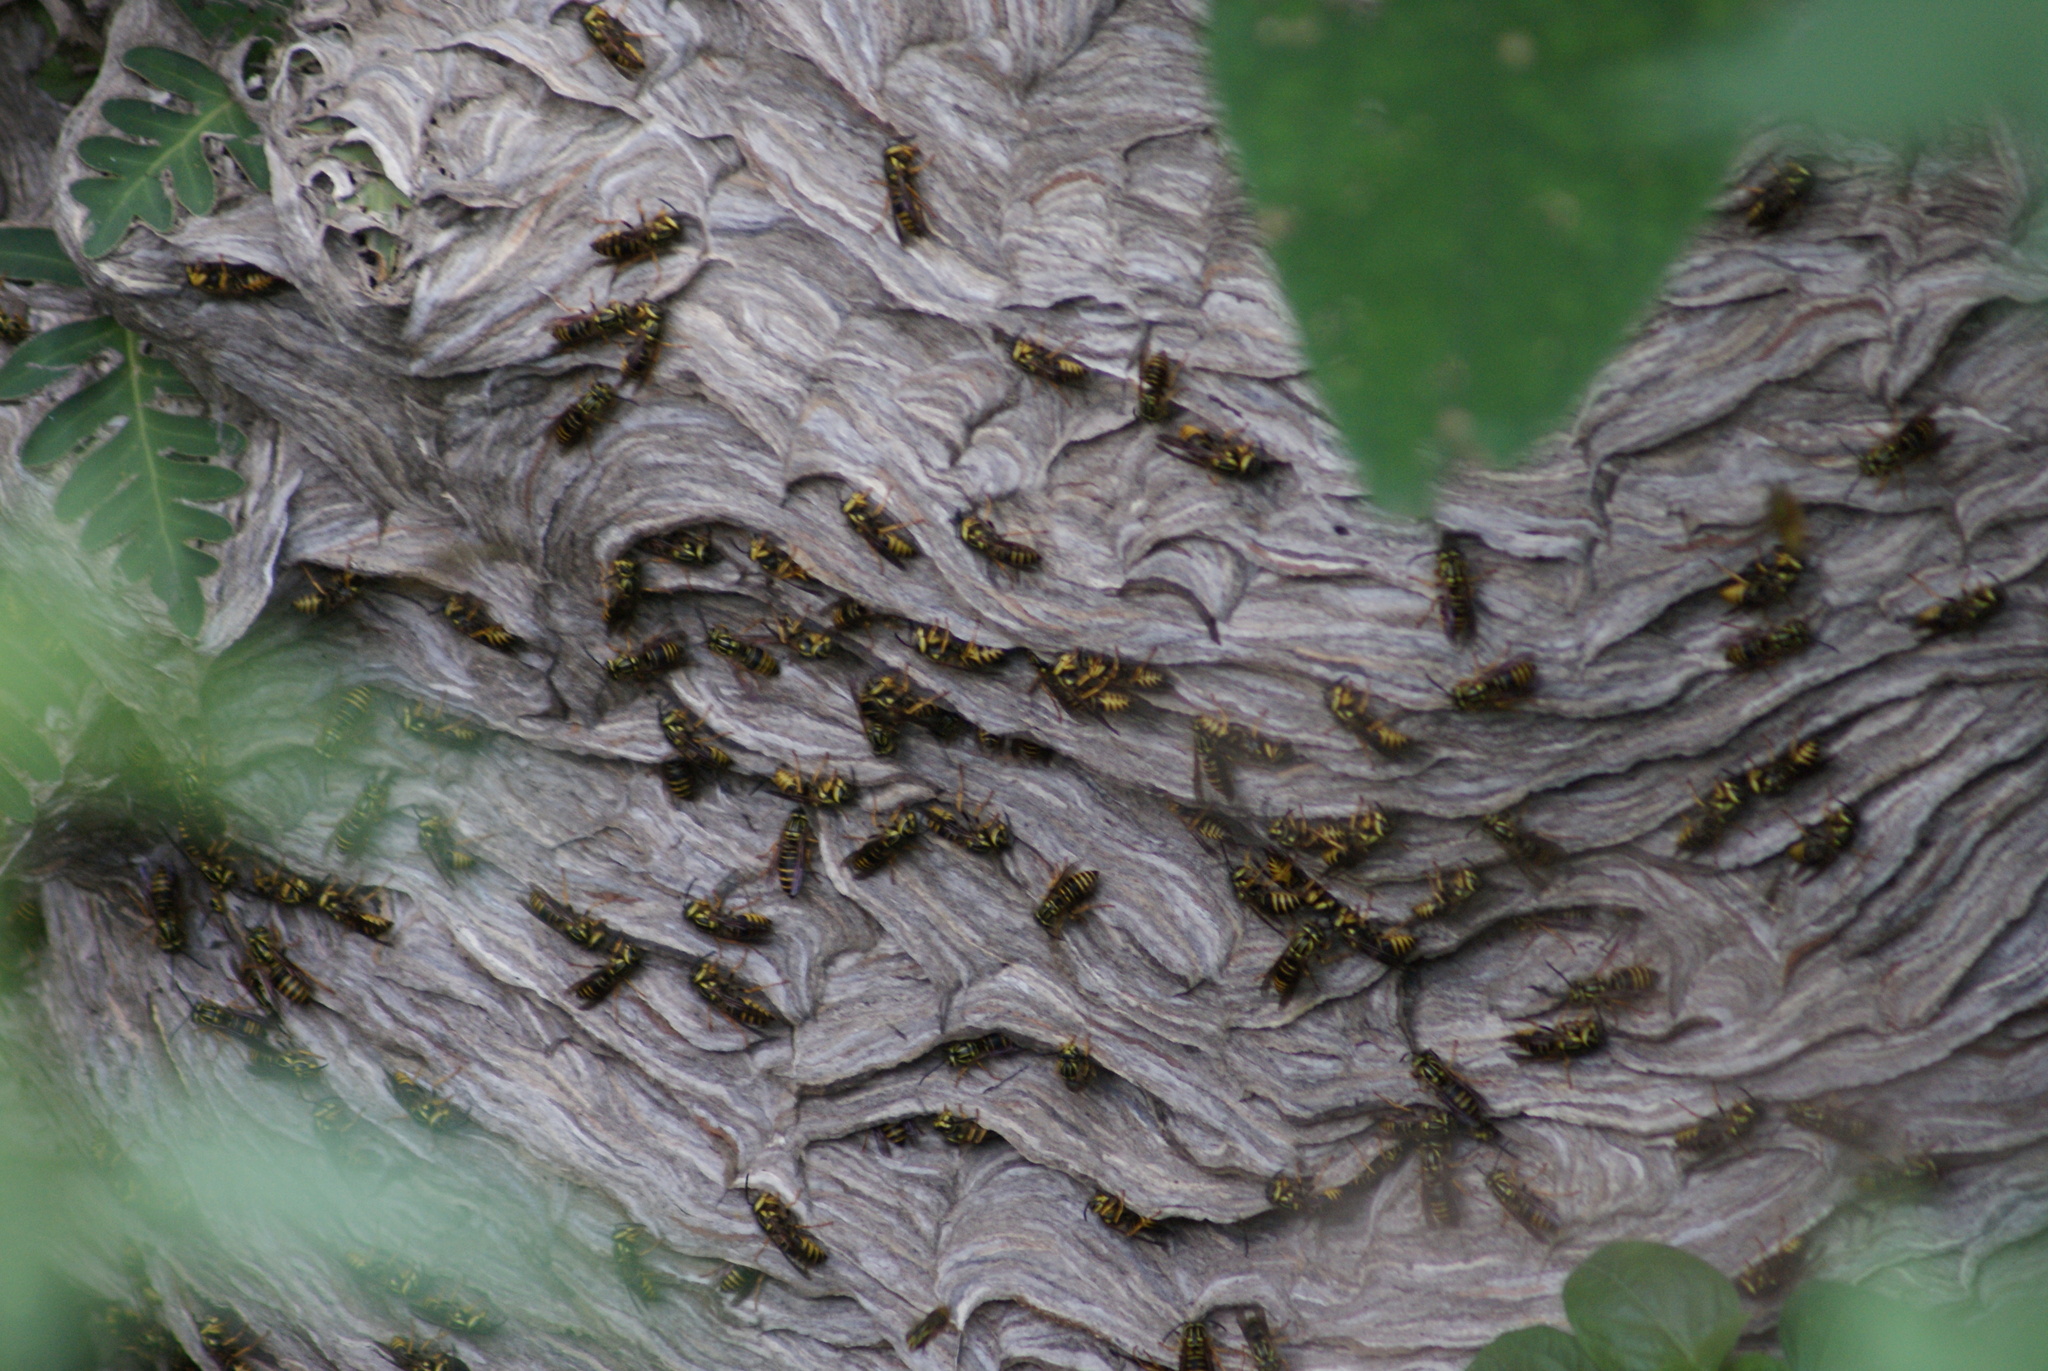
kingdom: Animalia
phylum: Arthropoda
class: Insecta
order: Hymenoptera
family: Vespidae
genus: Vespula
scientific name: Vespula squamosa
